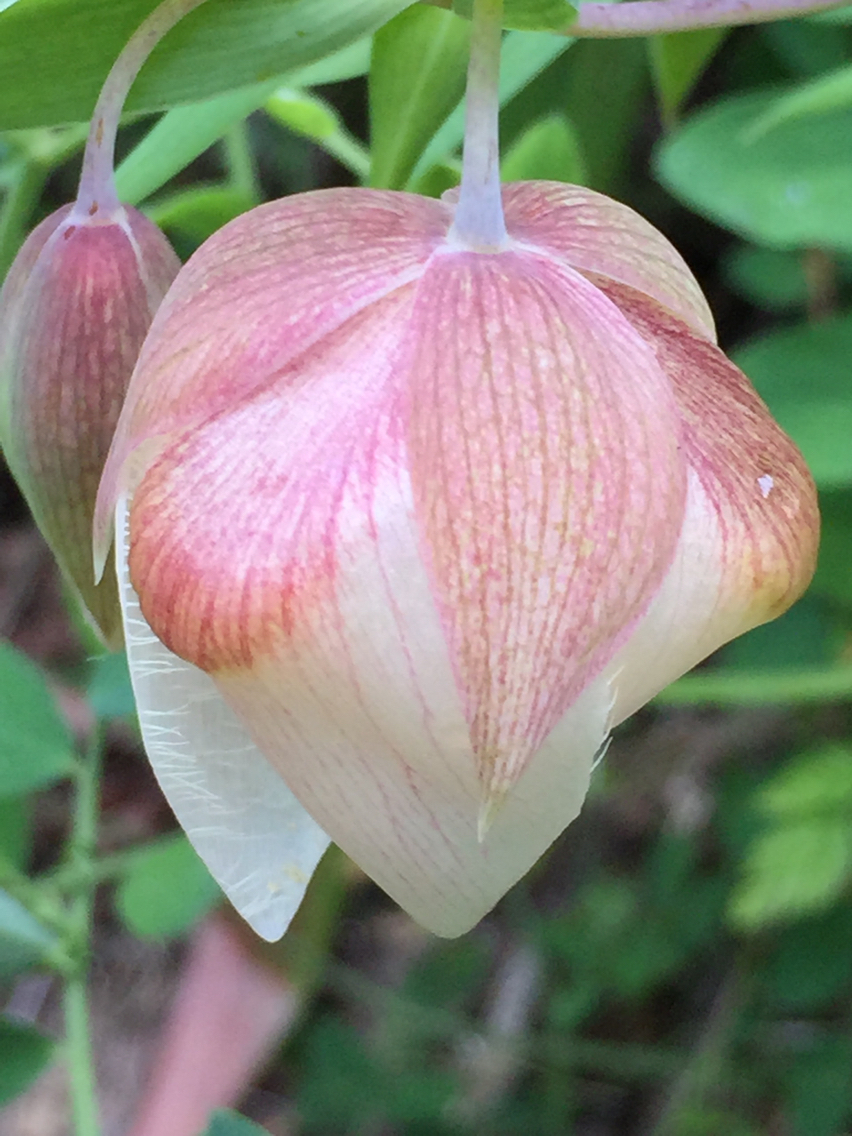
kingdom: Plantae
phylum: Tracheophyta
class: Liliopsida
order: Liliales
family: Liliaceae
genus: Calochortus
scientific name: Calochortus albus
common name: Fairy-lantern
